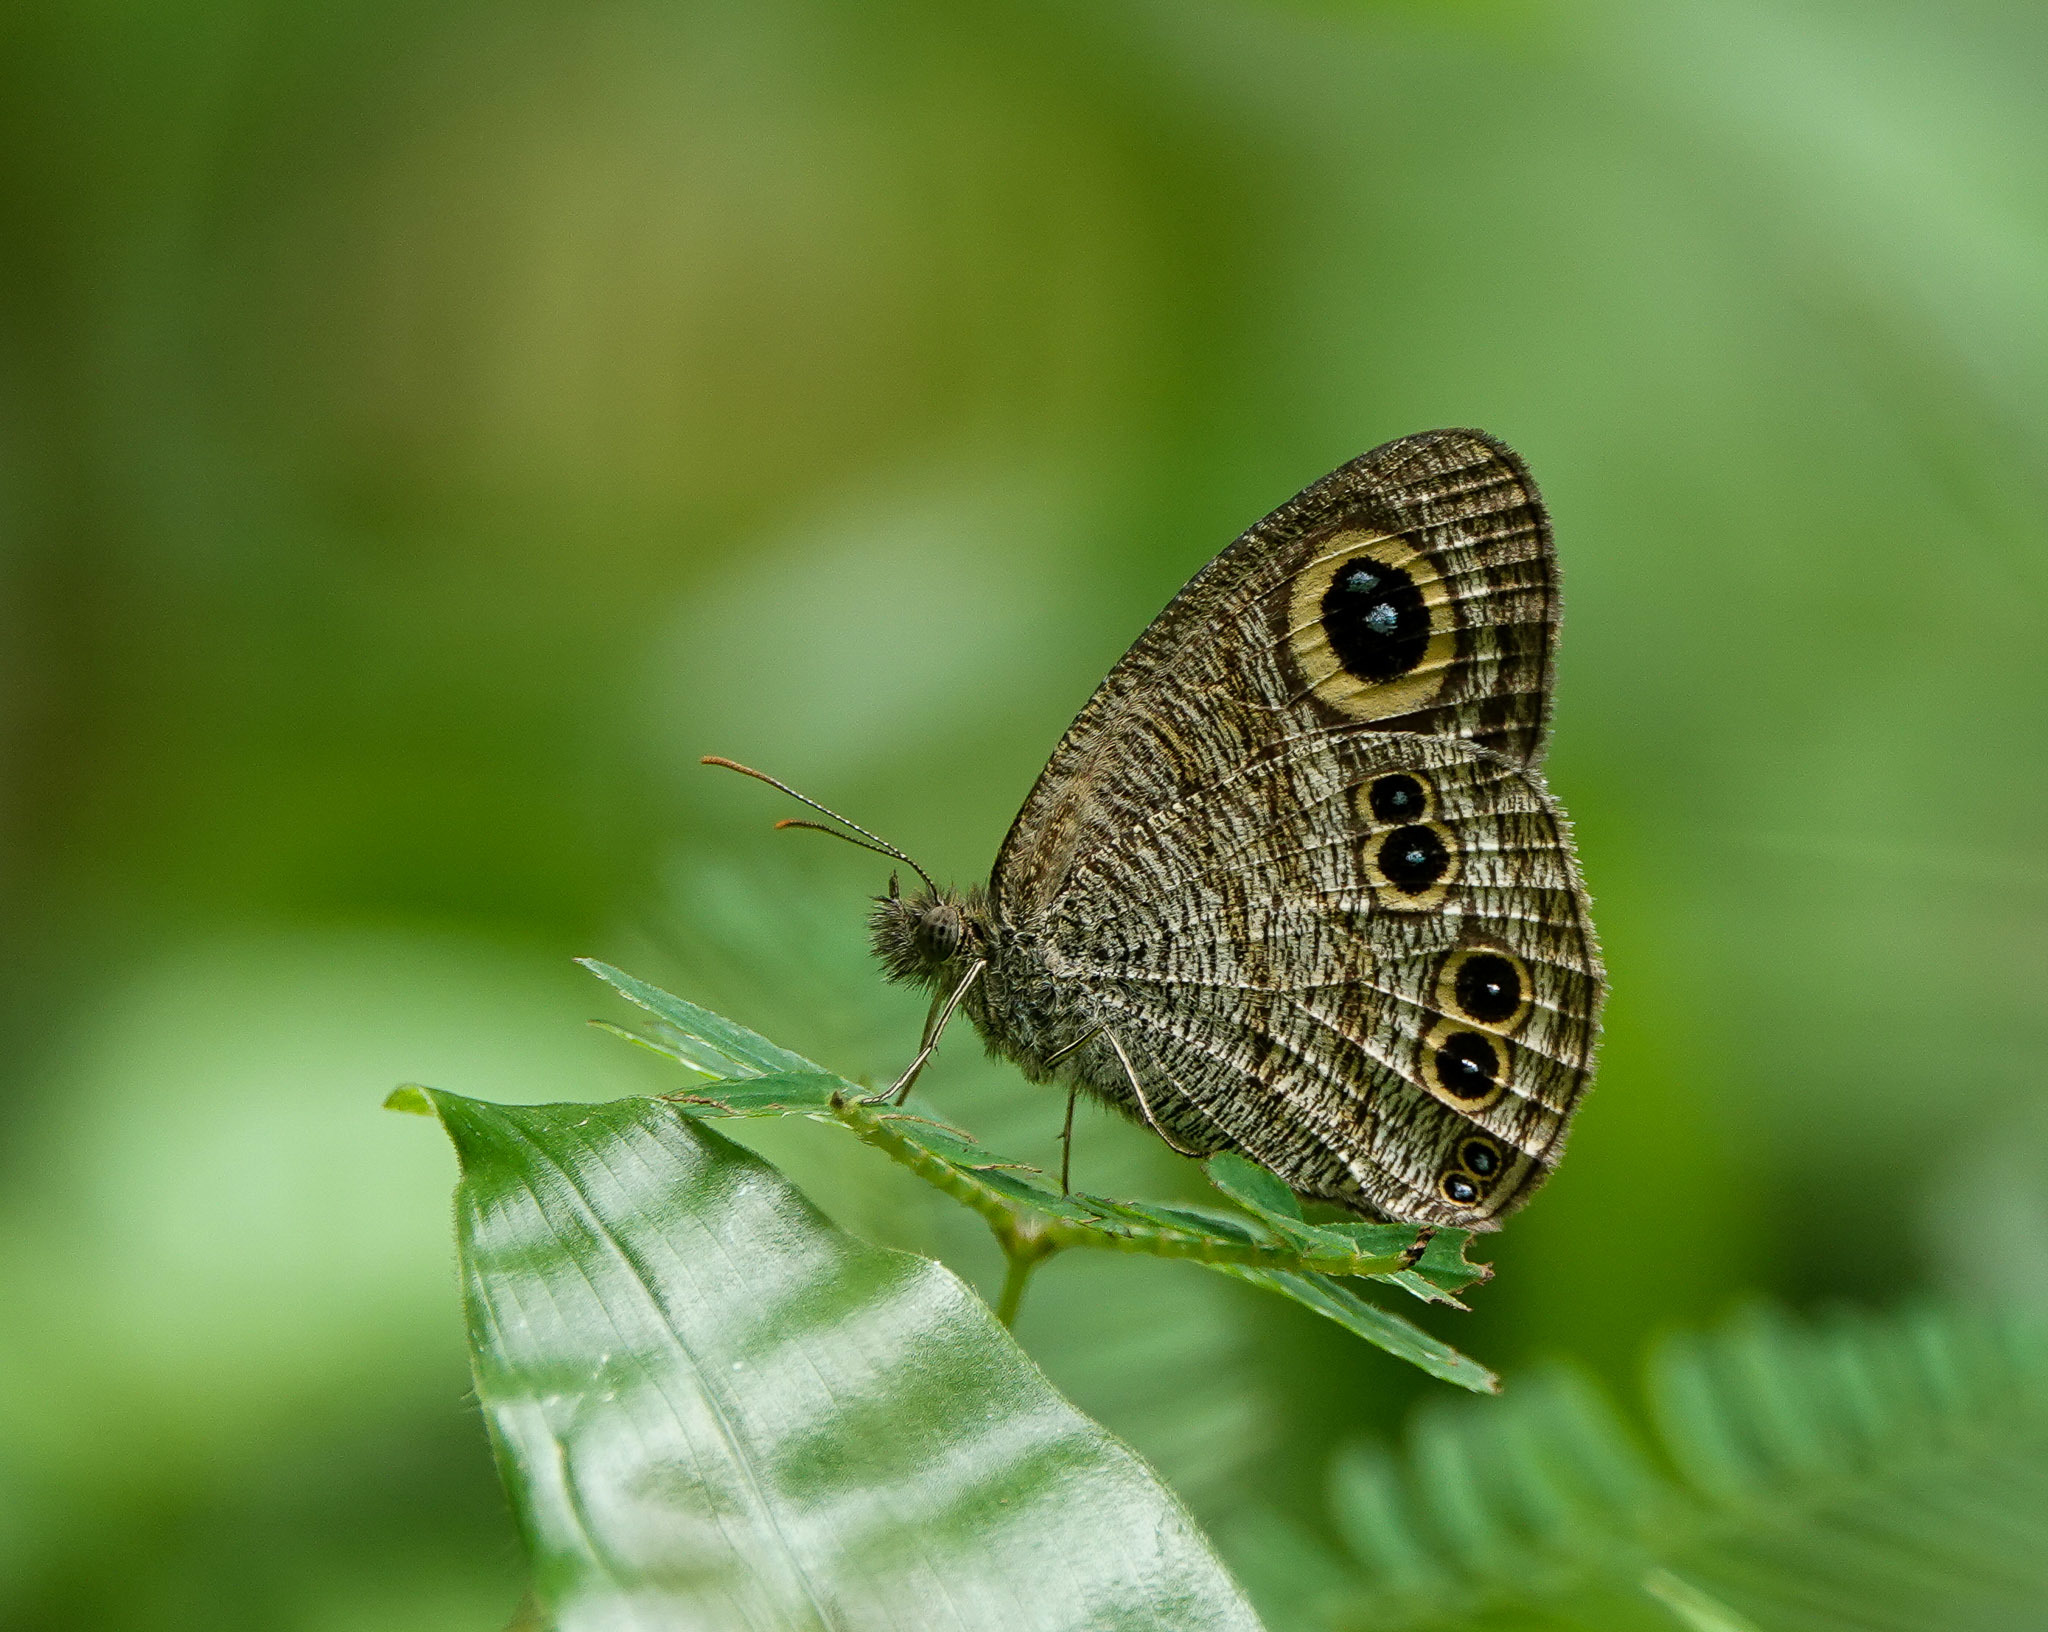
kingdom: Animalia
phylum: Arthropoda
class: Insecta
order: Lepidoptera
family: Nymphalidae
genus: Ypthima
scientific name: Ypthima baldus
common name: Common five-ring
